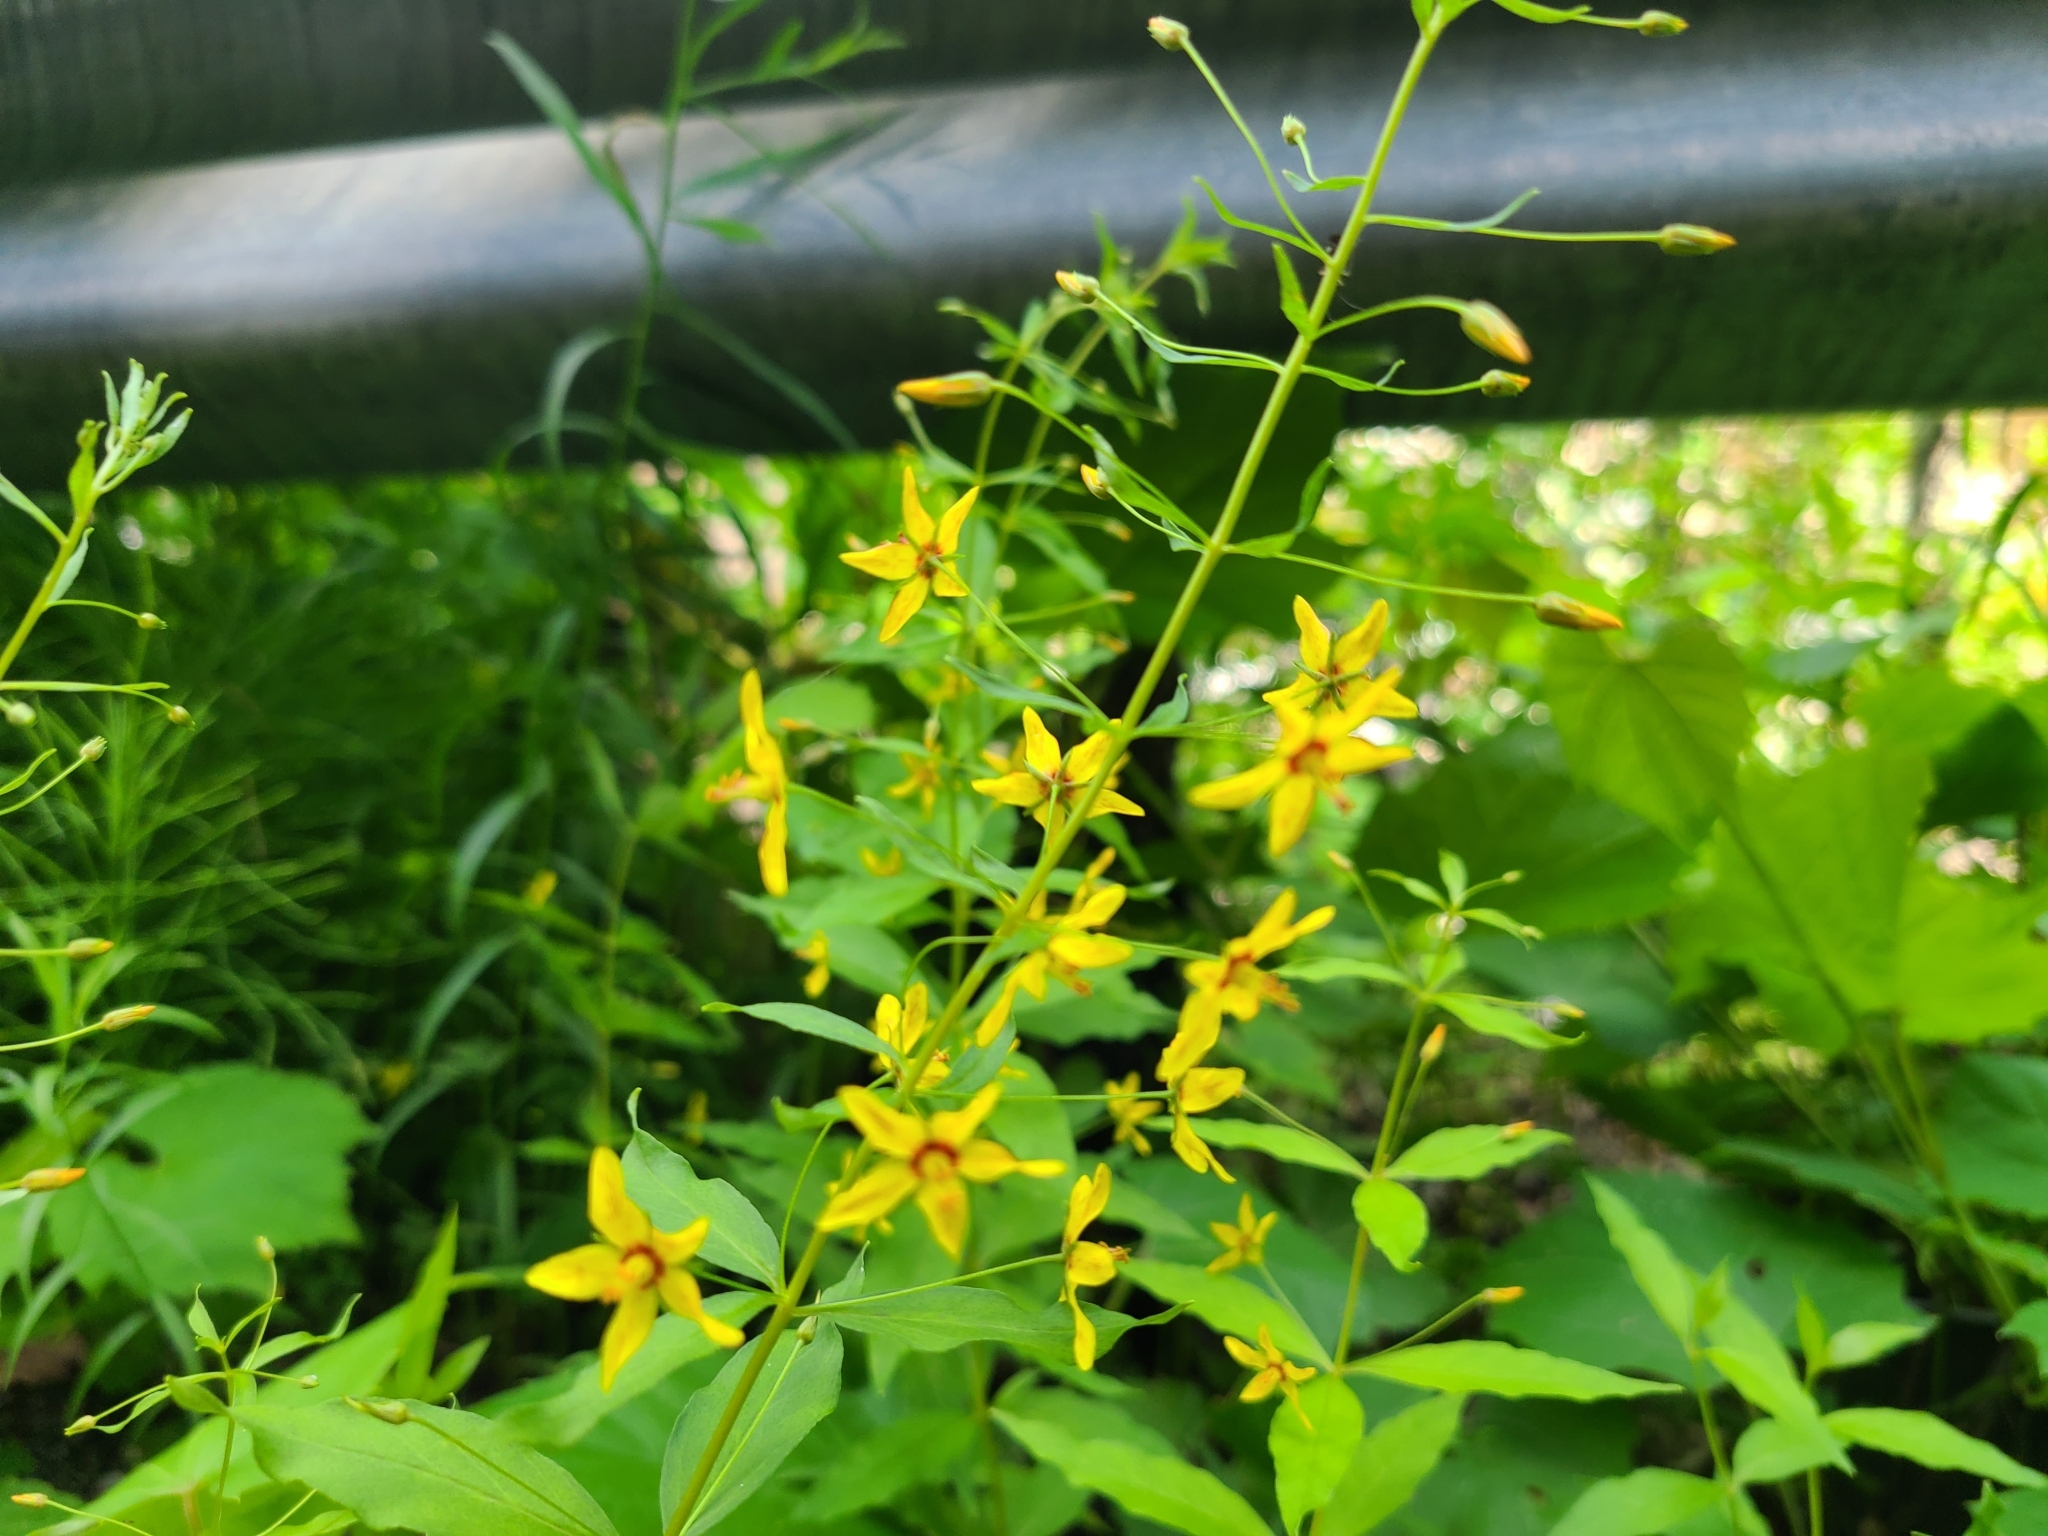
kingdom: Plantae
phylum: Tracheophyta
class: Magnoliopsida
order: Ericales
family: Primulaceae
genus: Lysimachia
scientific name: Lysimachia terrestris
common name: Lake loosestrife
